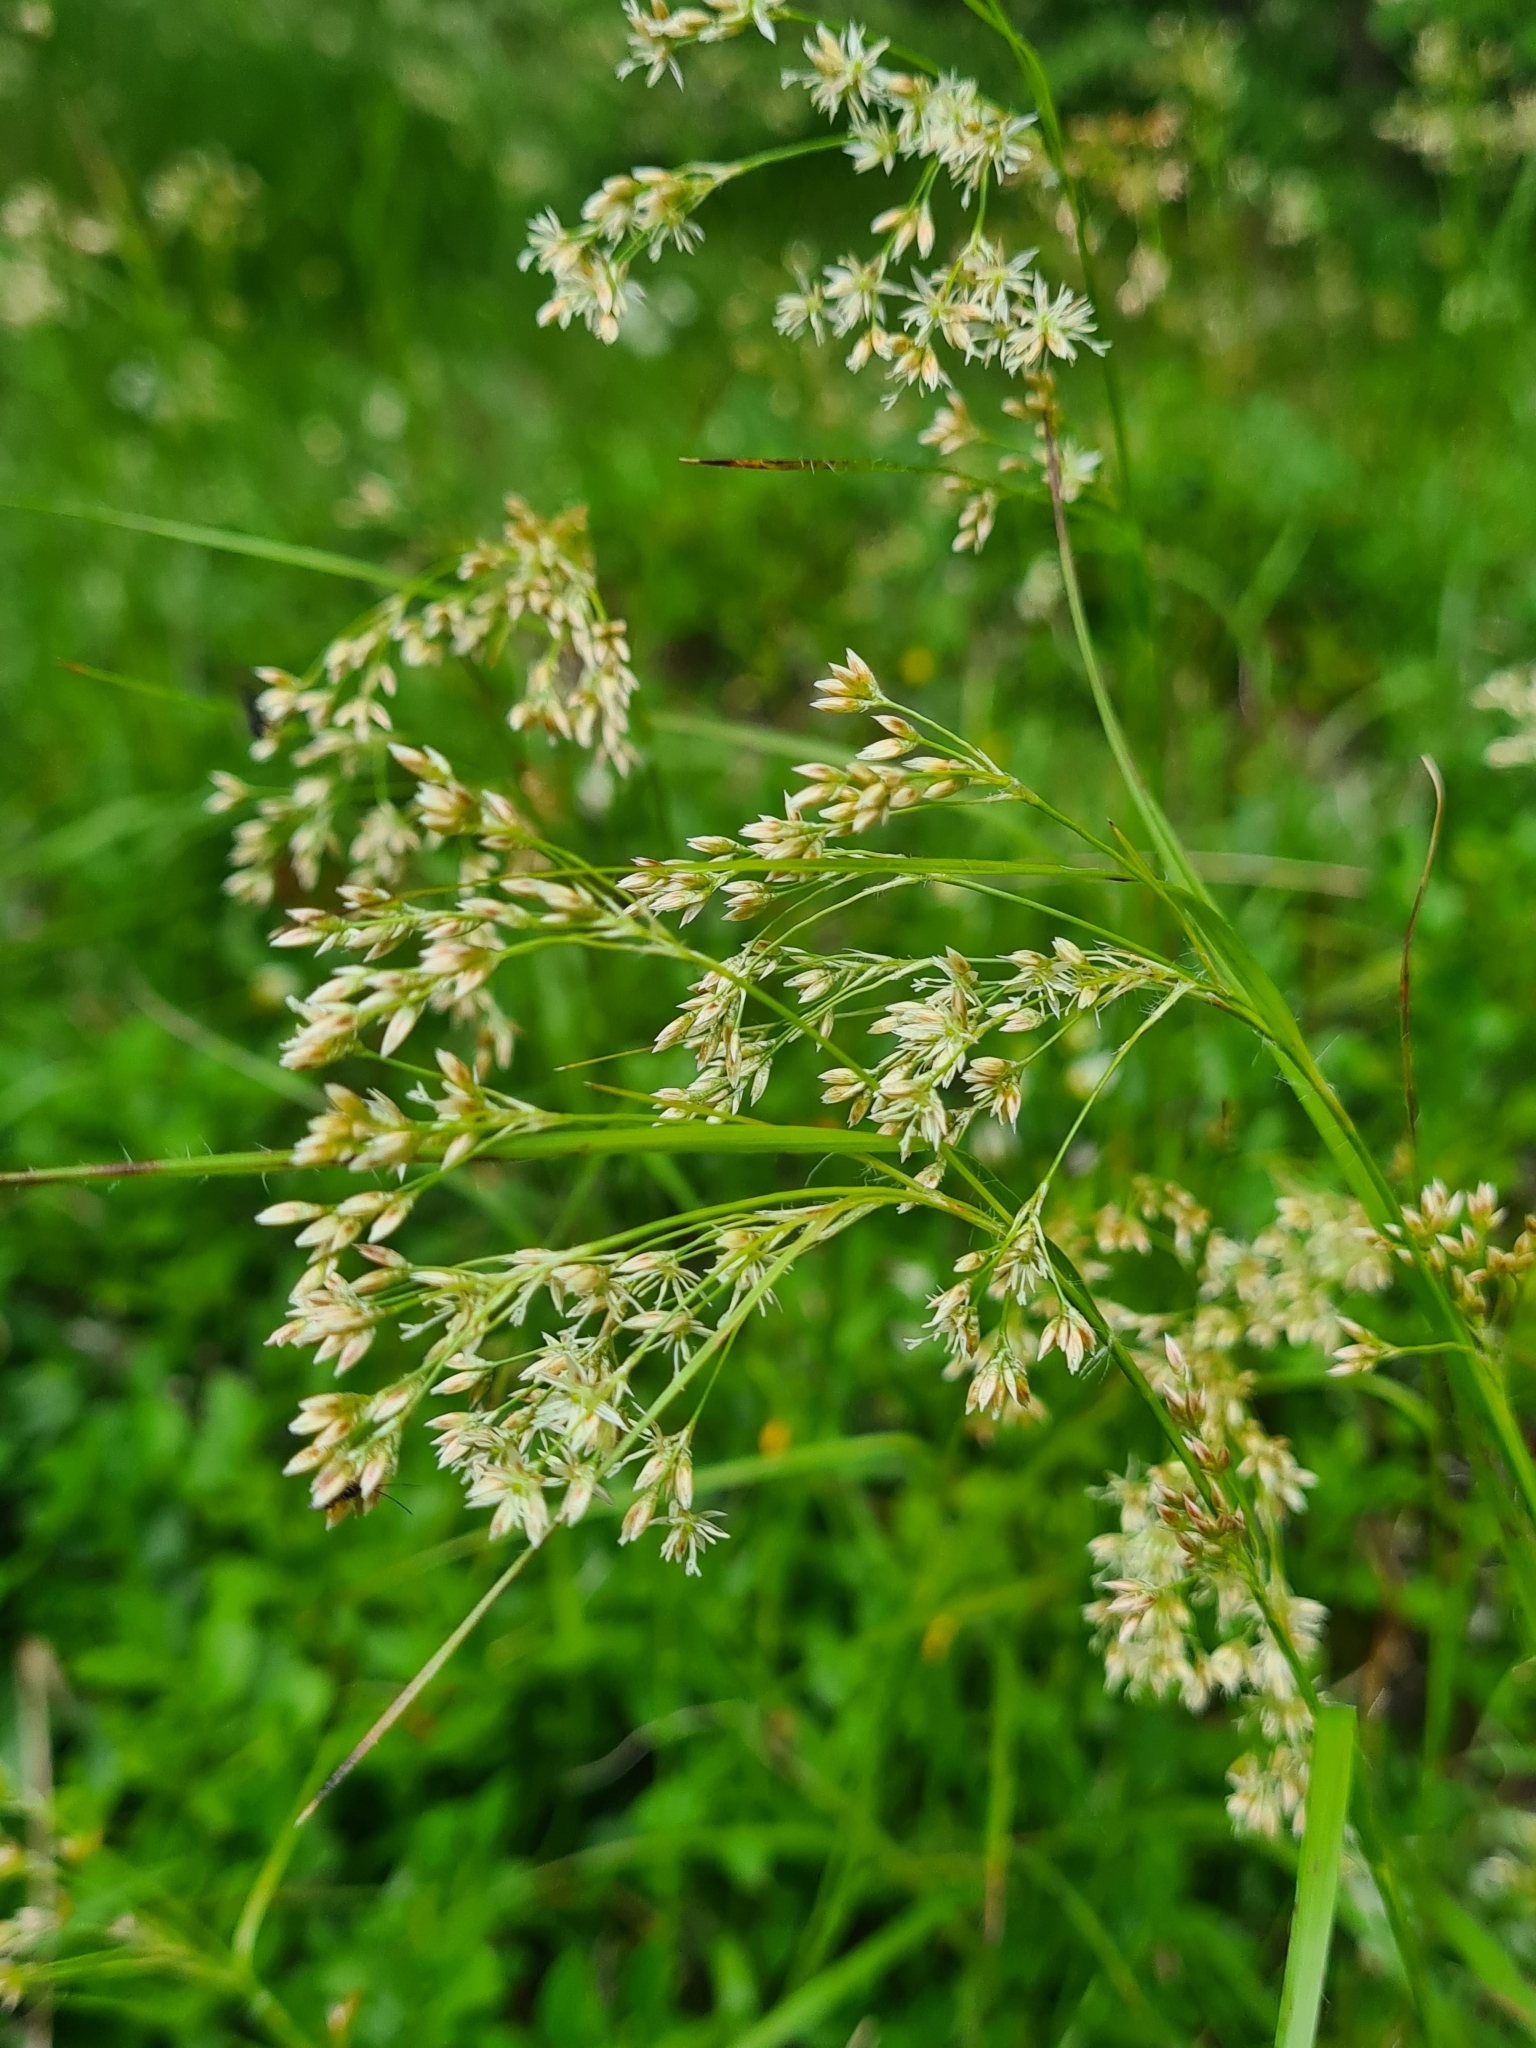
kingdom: Plantae
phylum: Tracheophyta
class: Liliopsida
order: Poales
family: Juncaceae
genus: Luzula
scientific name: Luzula luzuloides
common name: White wood-rush
